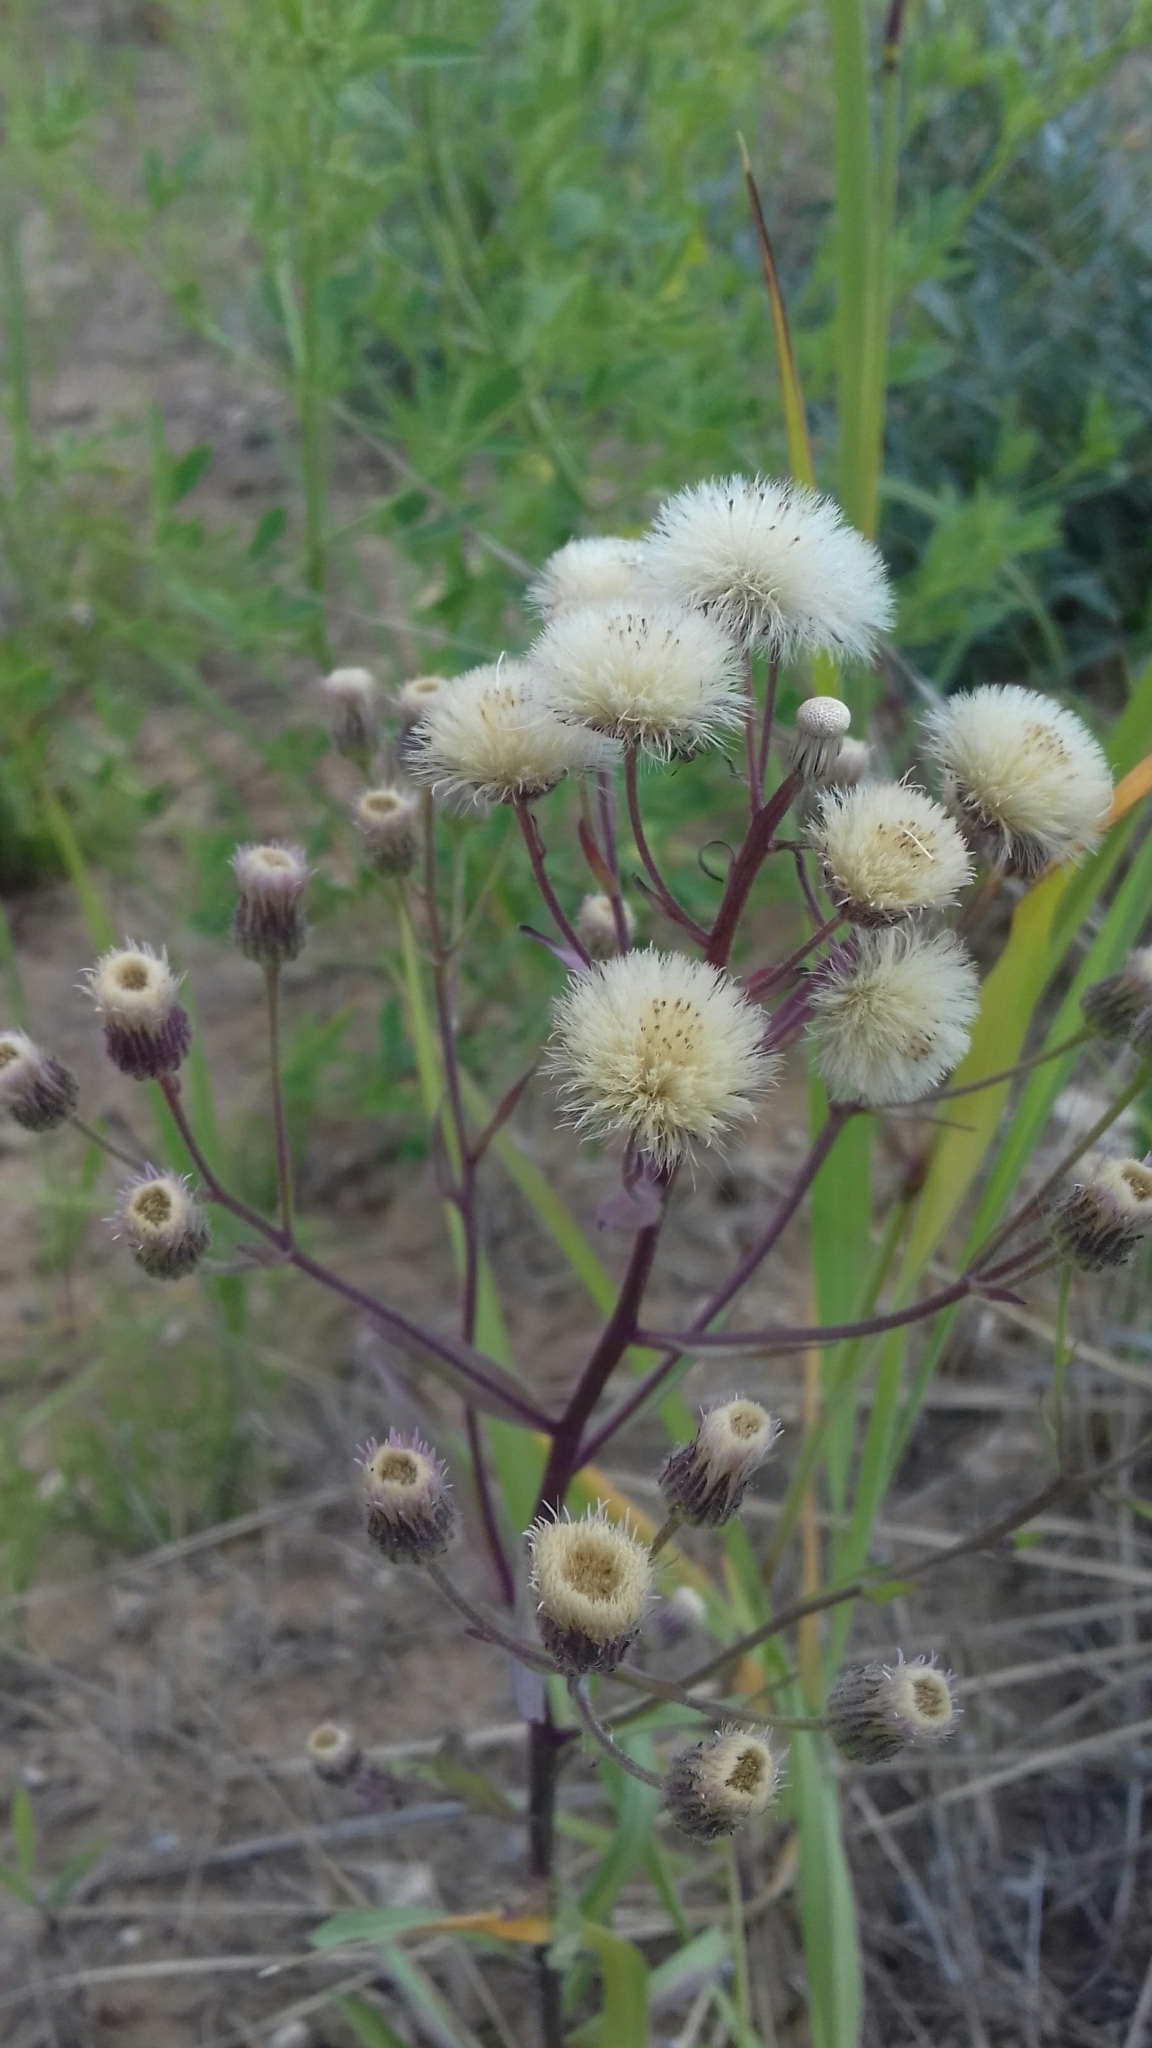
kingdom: Plantae
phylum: Tracheophyta
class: Magnoliopsida
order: Asterales
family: Asteraceae
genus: Erigeron
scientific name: Erigeron acris
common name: Blue fleabane
